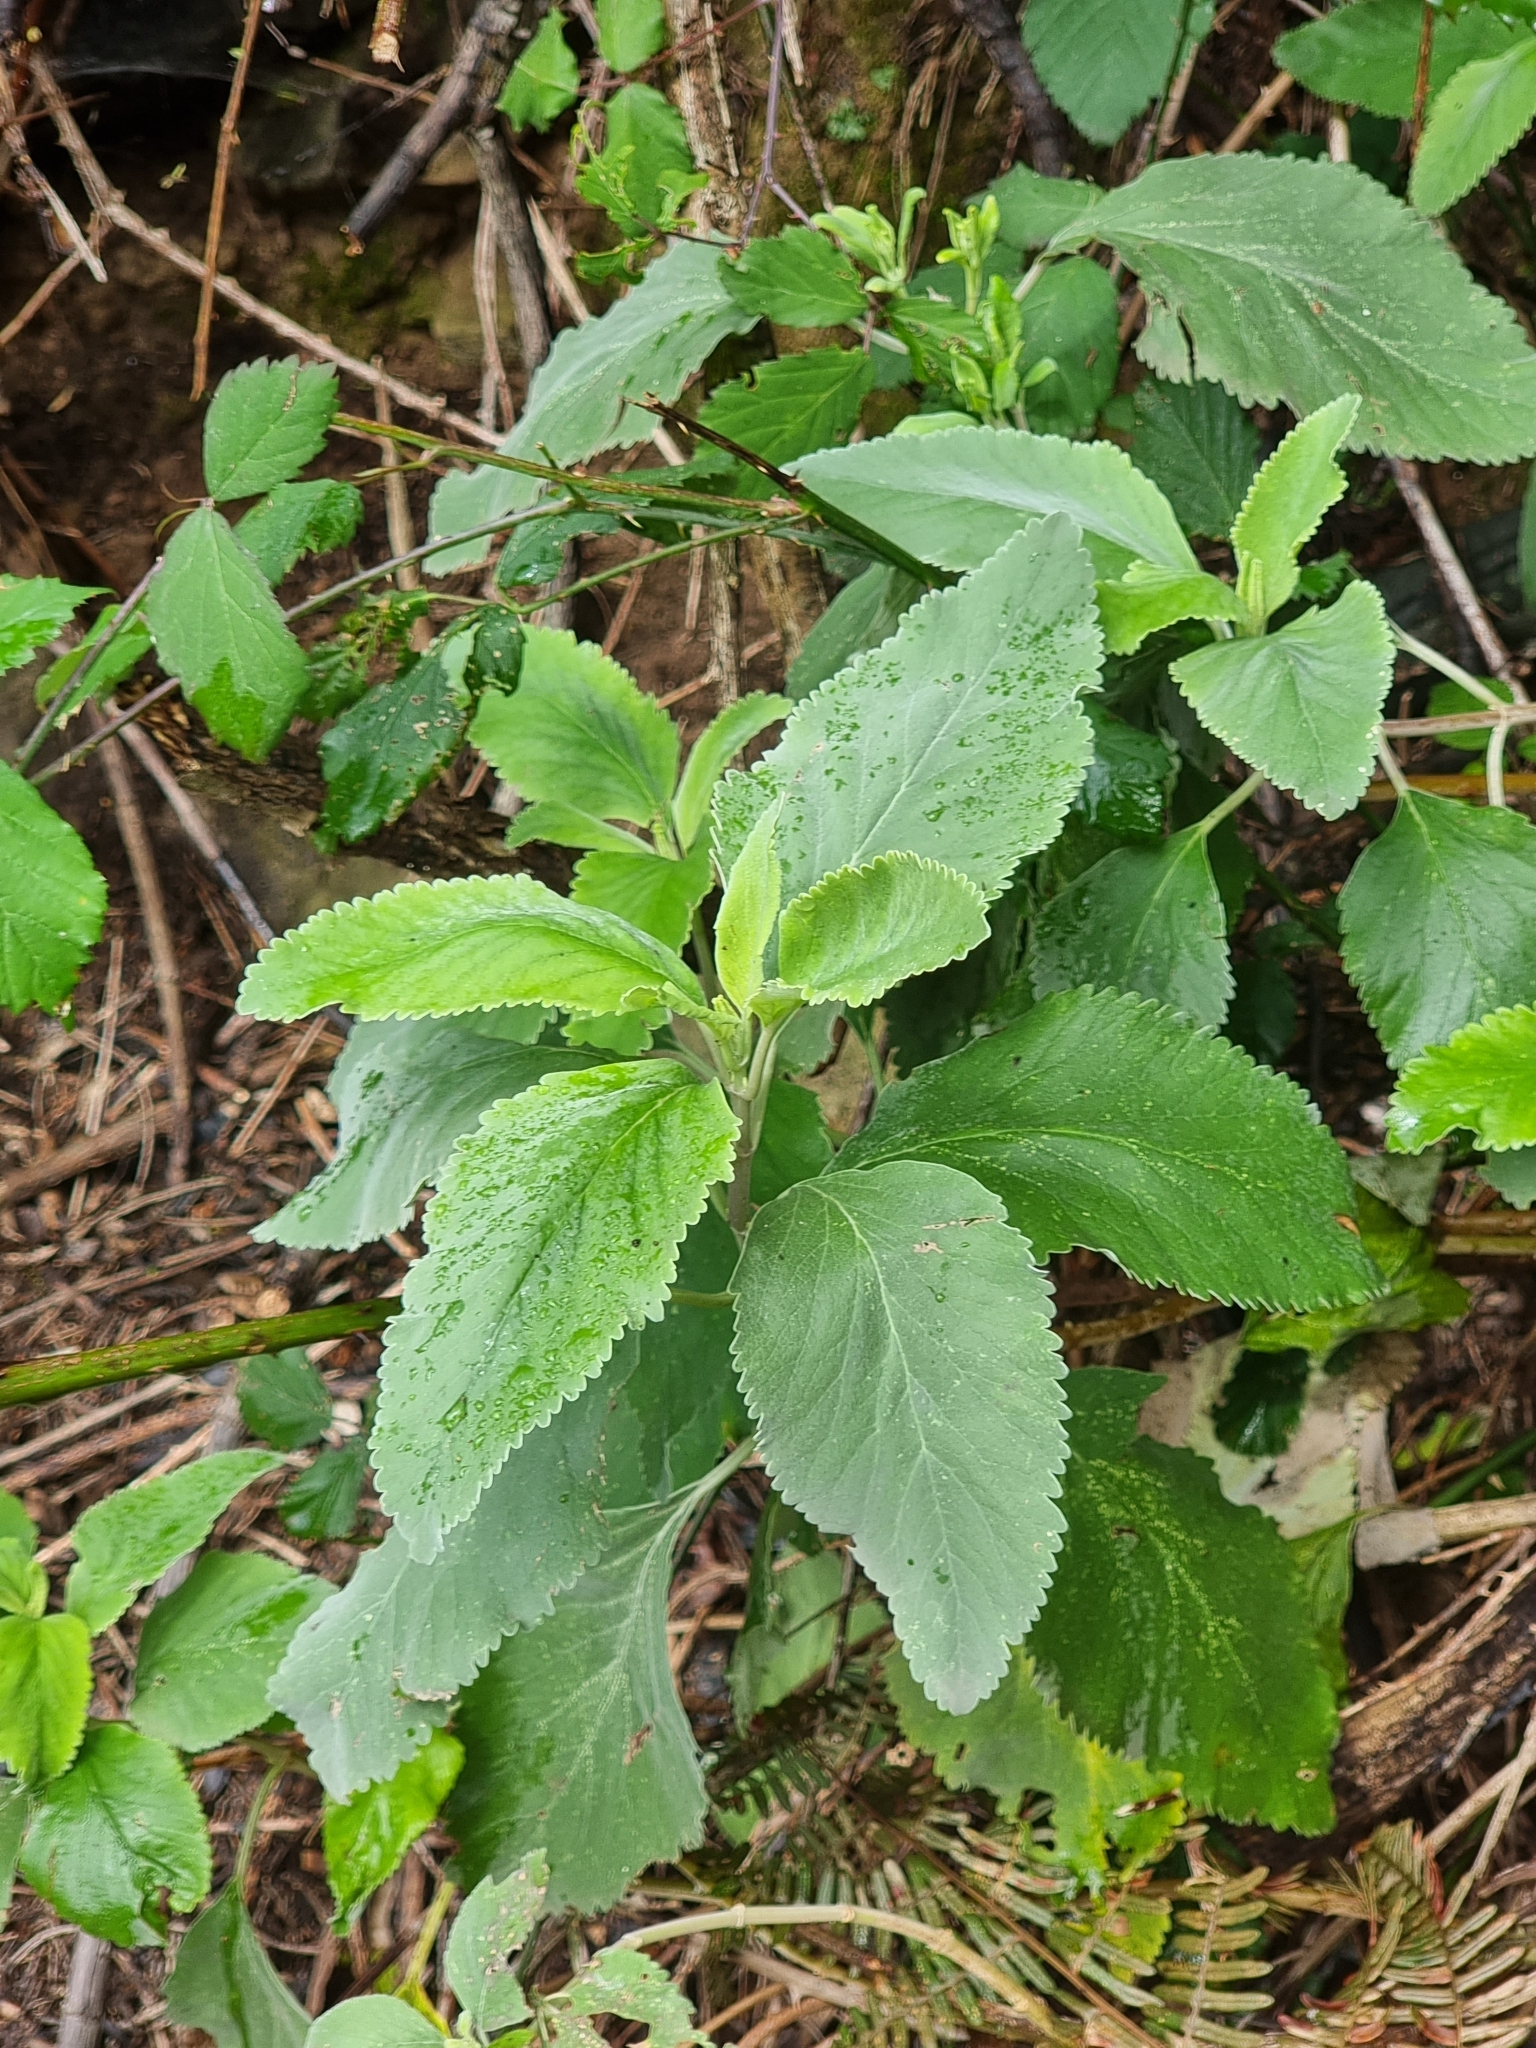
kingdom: Plantae
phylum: Tracheophyta
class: Magnoliopsida
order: Lamiales
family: Lamiaceae
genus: Teucrium
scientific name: Teucrium betonicum
